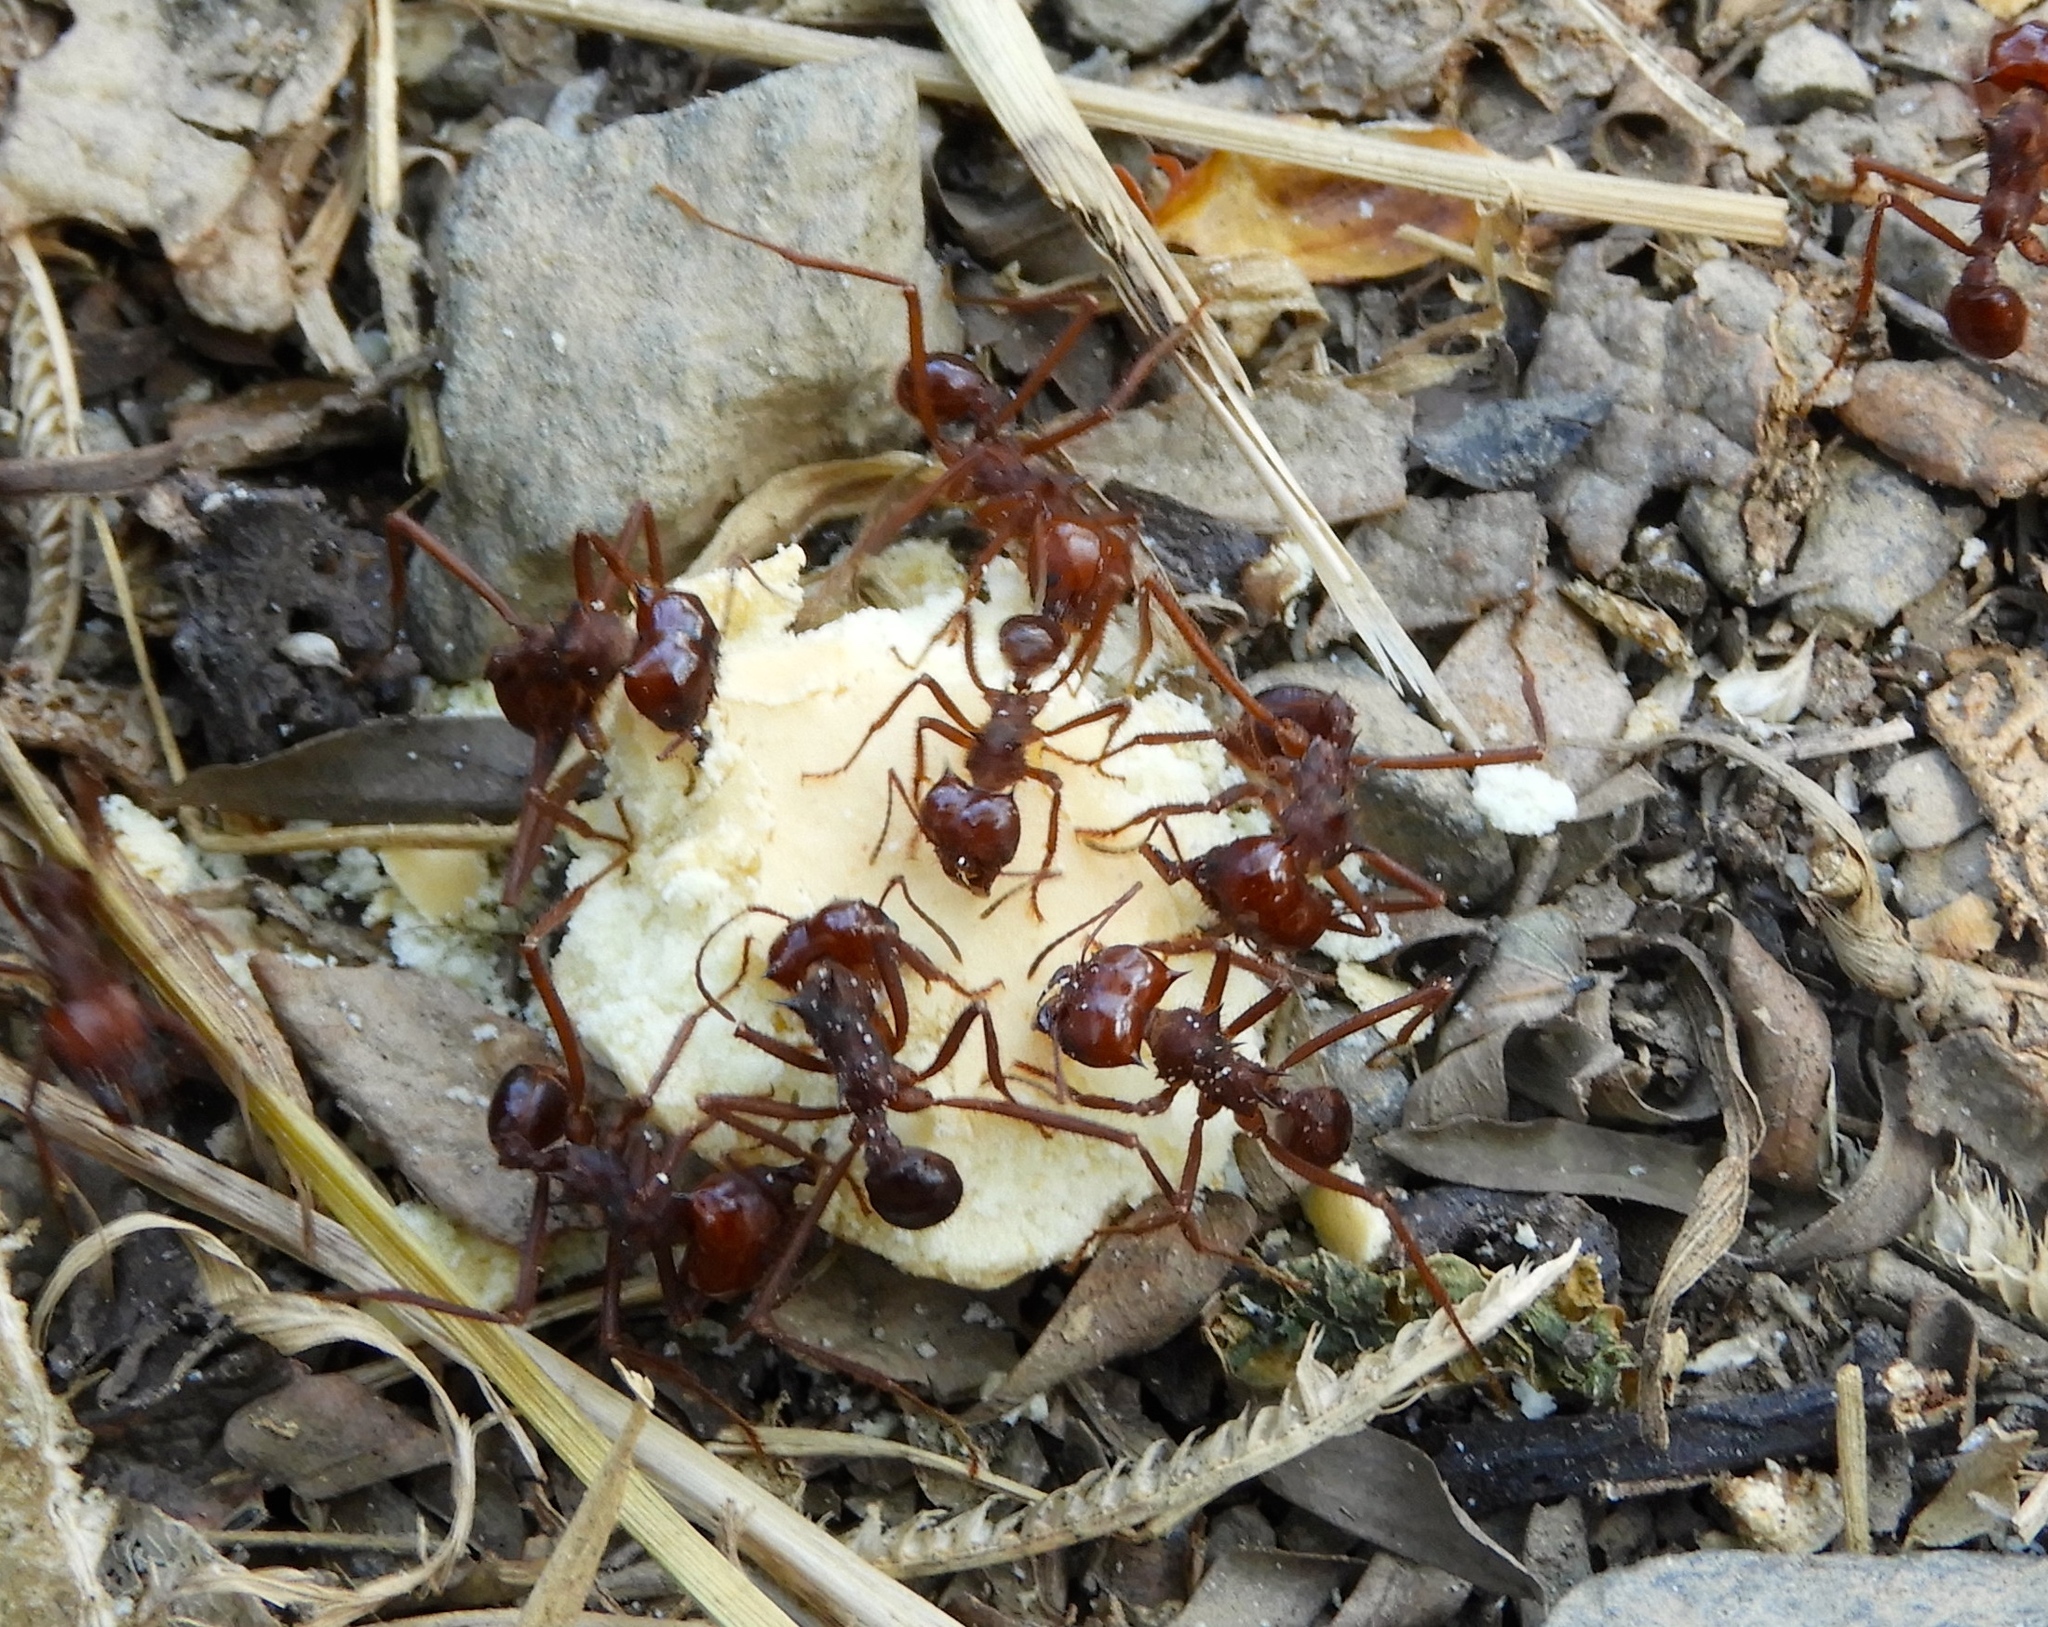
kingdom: Animalia
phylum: Arthropoda
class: Insecta
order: Hymenoptera
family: Formicidae
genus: Atta
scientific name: Atta mexicana
